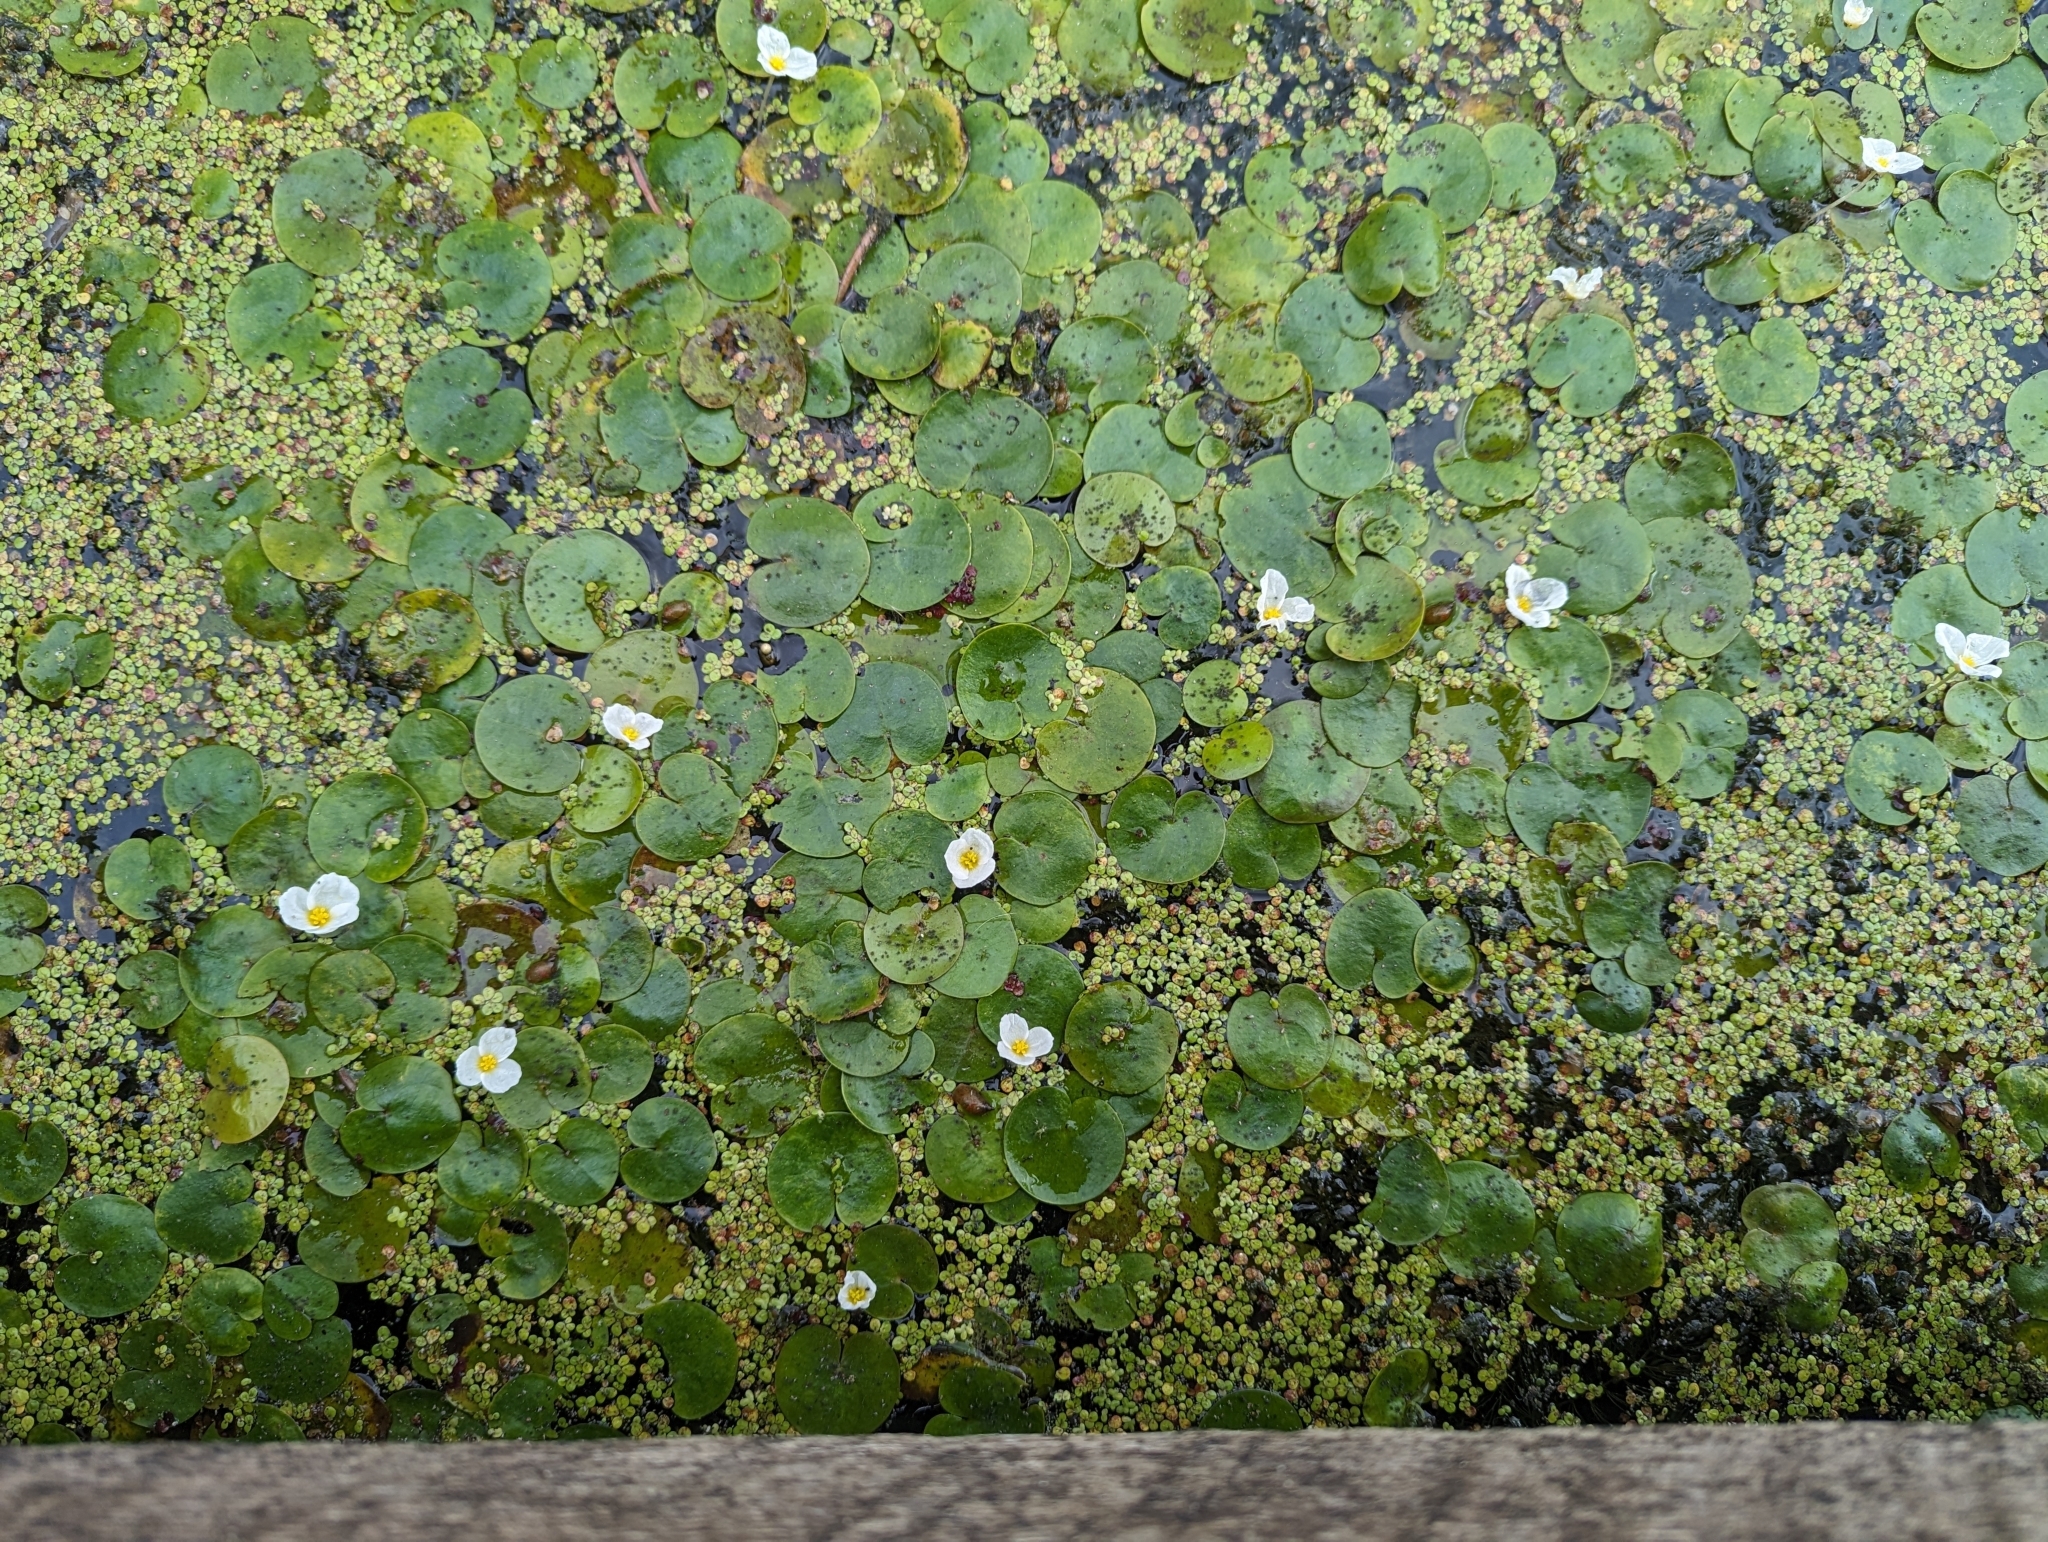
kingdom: Plantae
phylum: Tracheophyta
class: Liliopsida
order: Alismatales
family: Hydrocharitaceae
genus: Hydrocharis
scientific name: Hydrocharis morsus-ranae
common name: Frogbit
